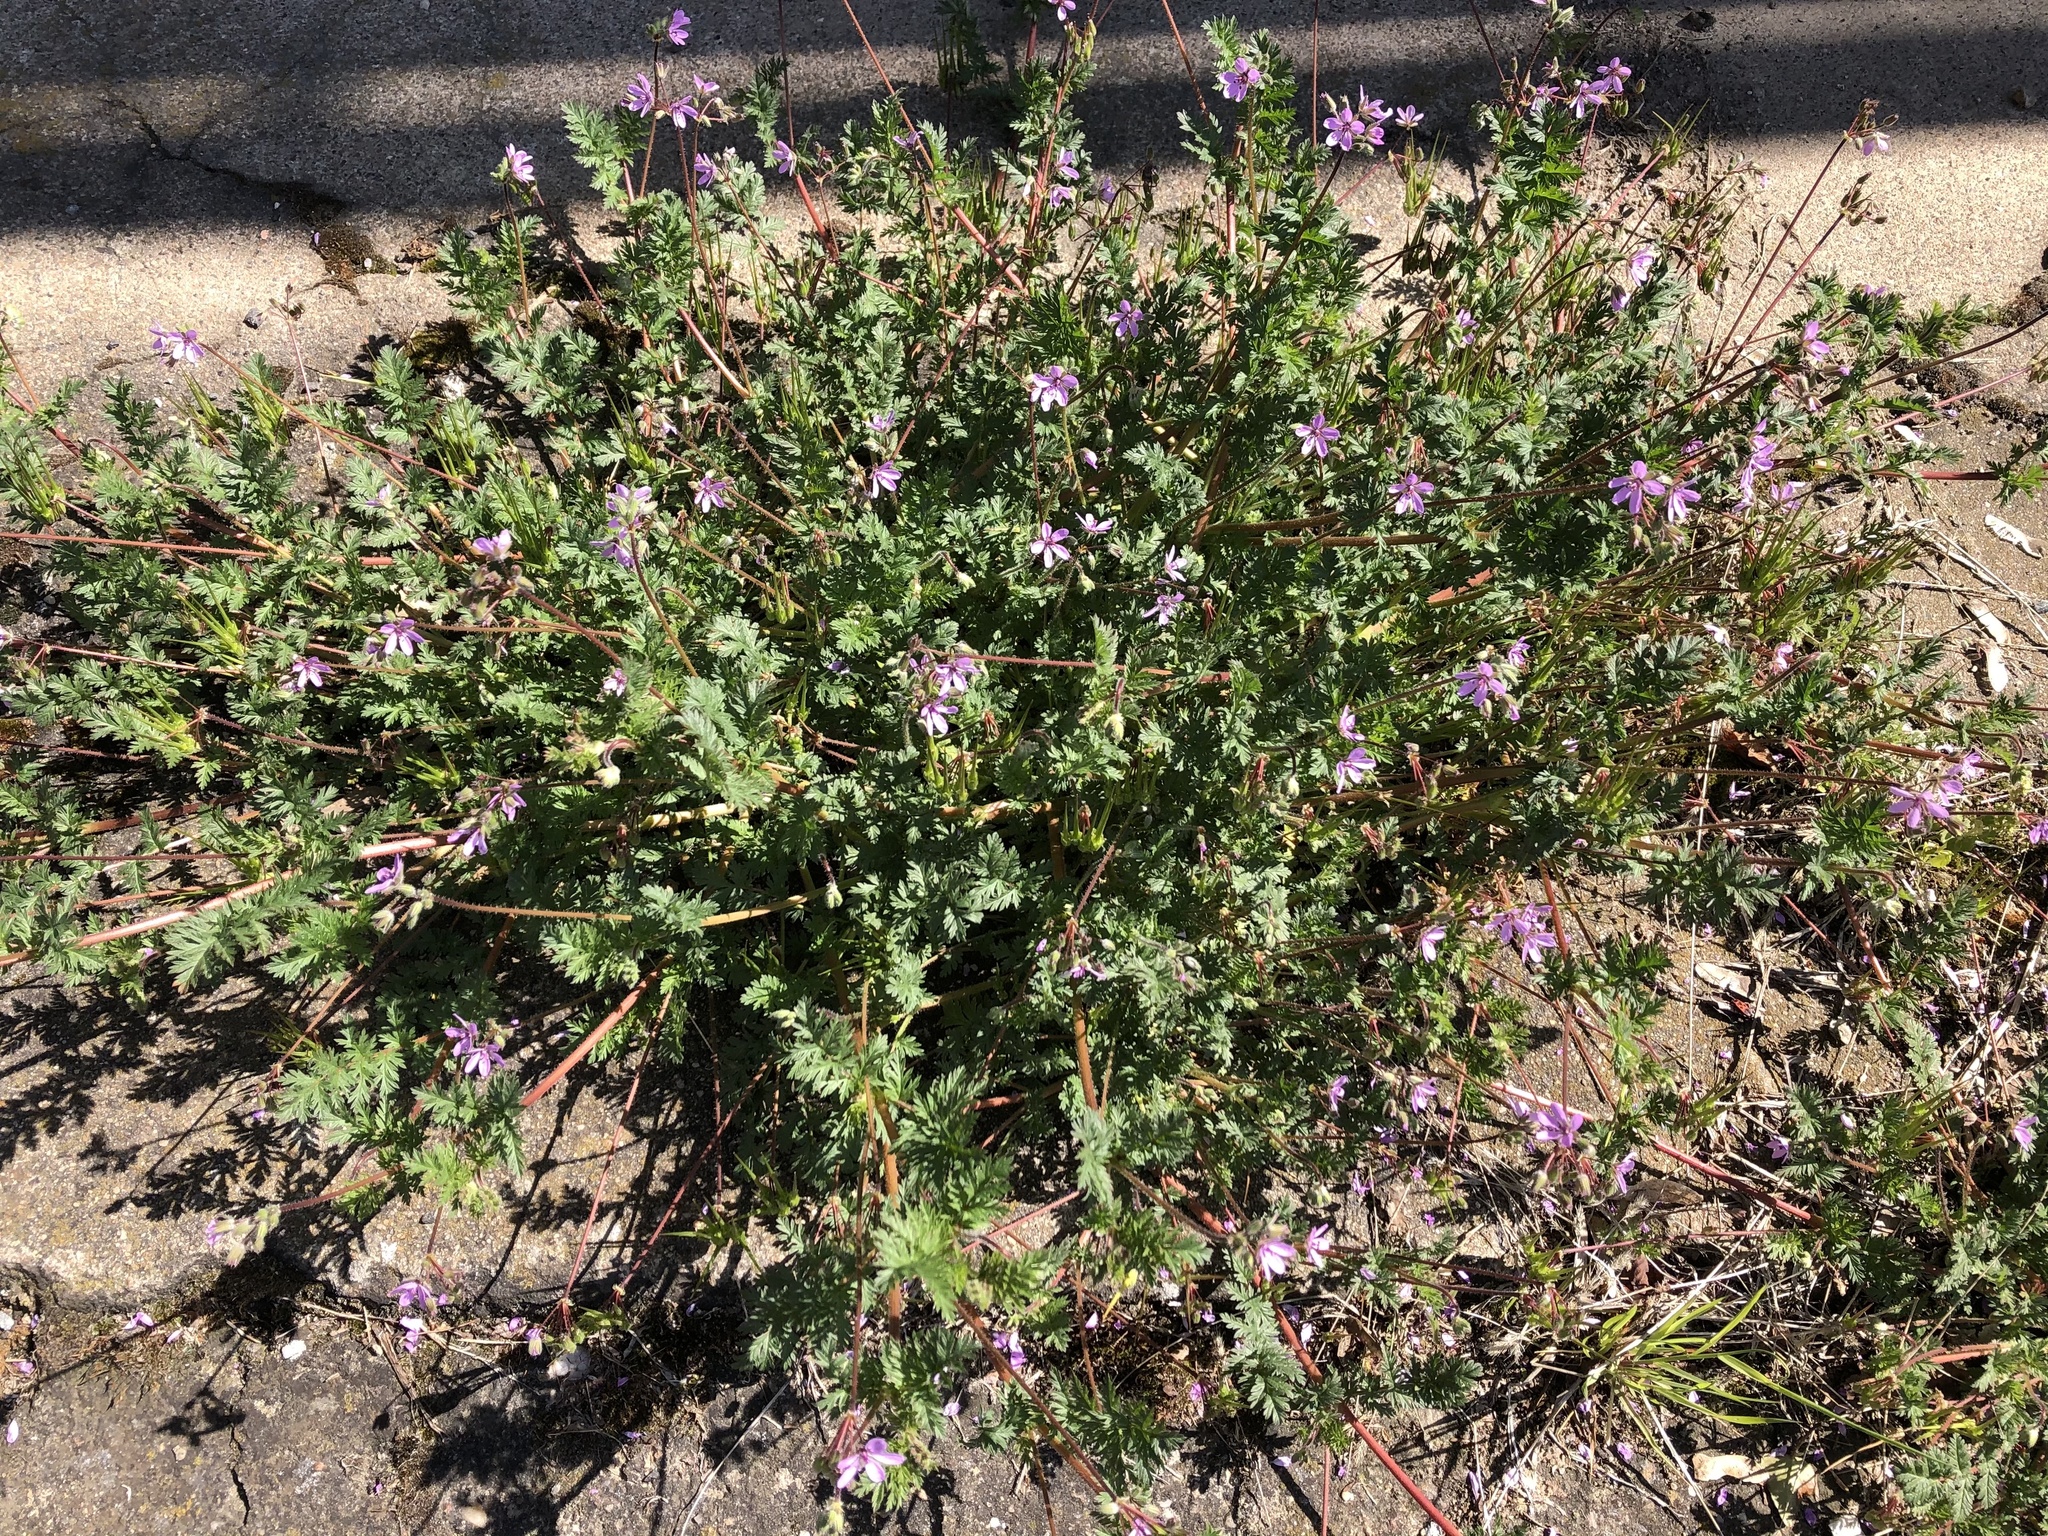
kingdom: Plantae
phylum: Tracheophyta
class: Magnoliopsida
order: Geraniales
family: Geraniaceae
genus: Erodium
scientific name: Erodium cicutarium
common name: Common stork's-bill
